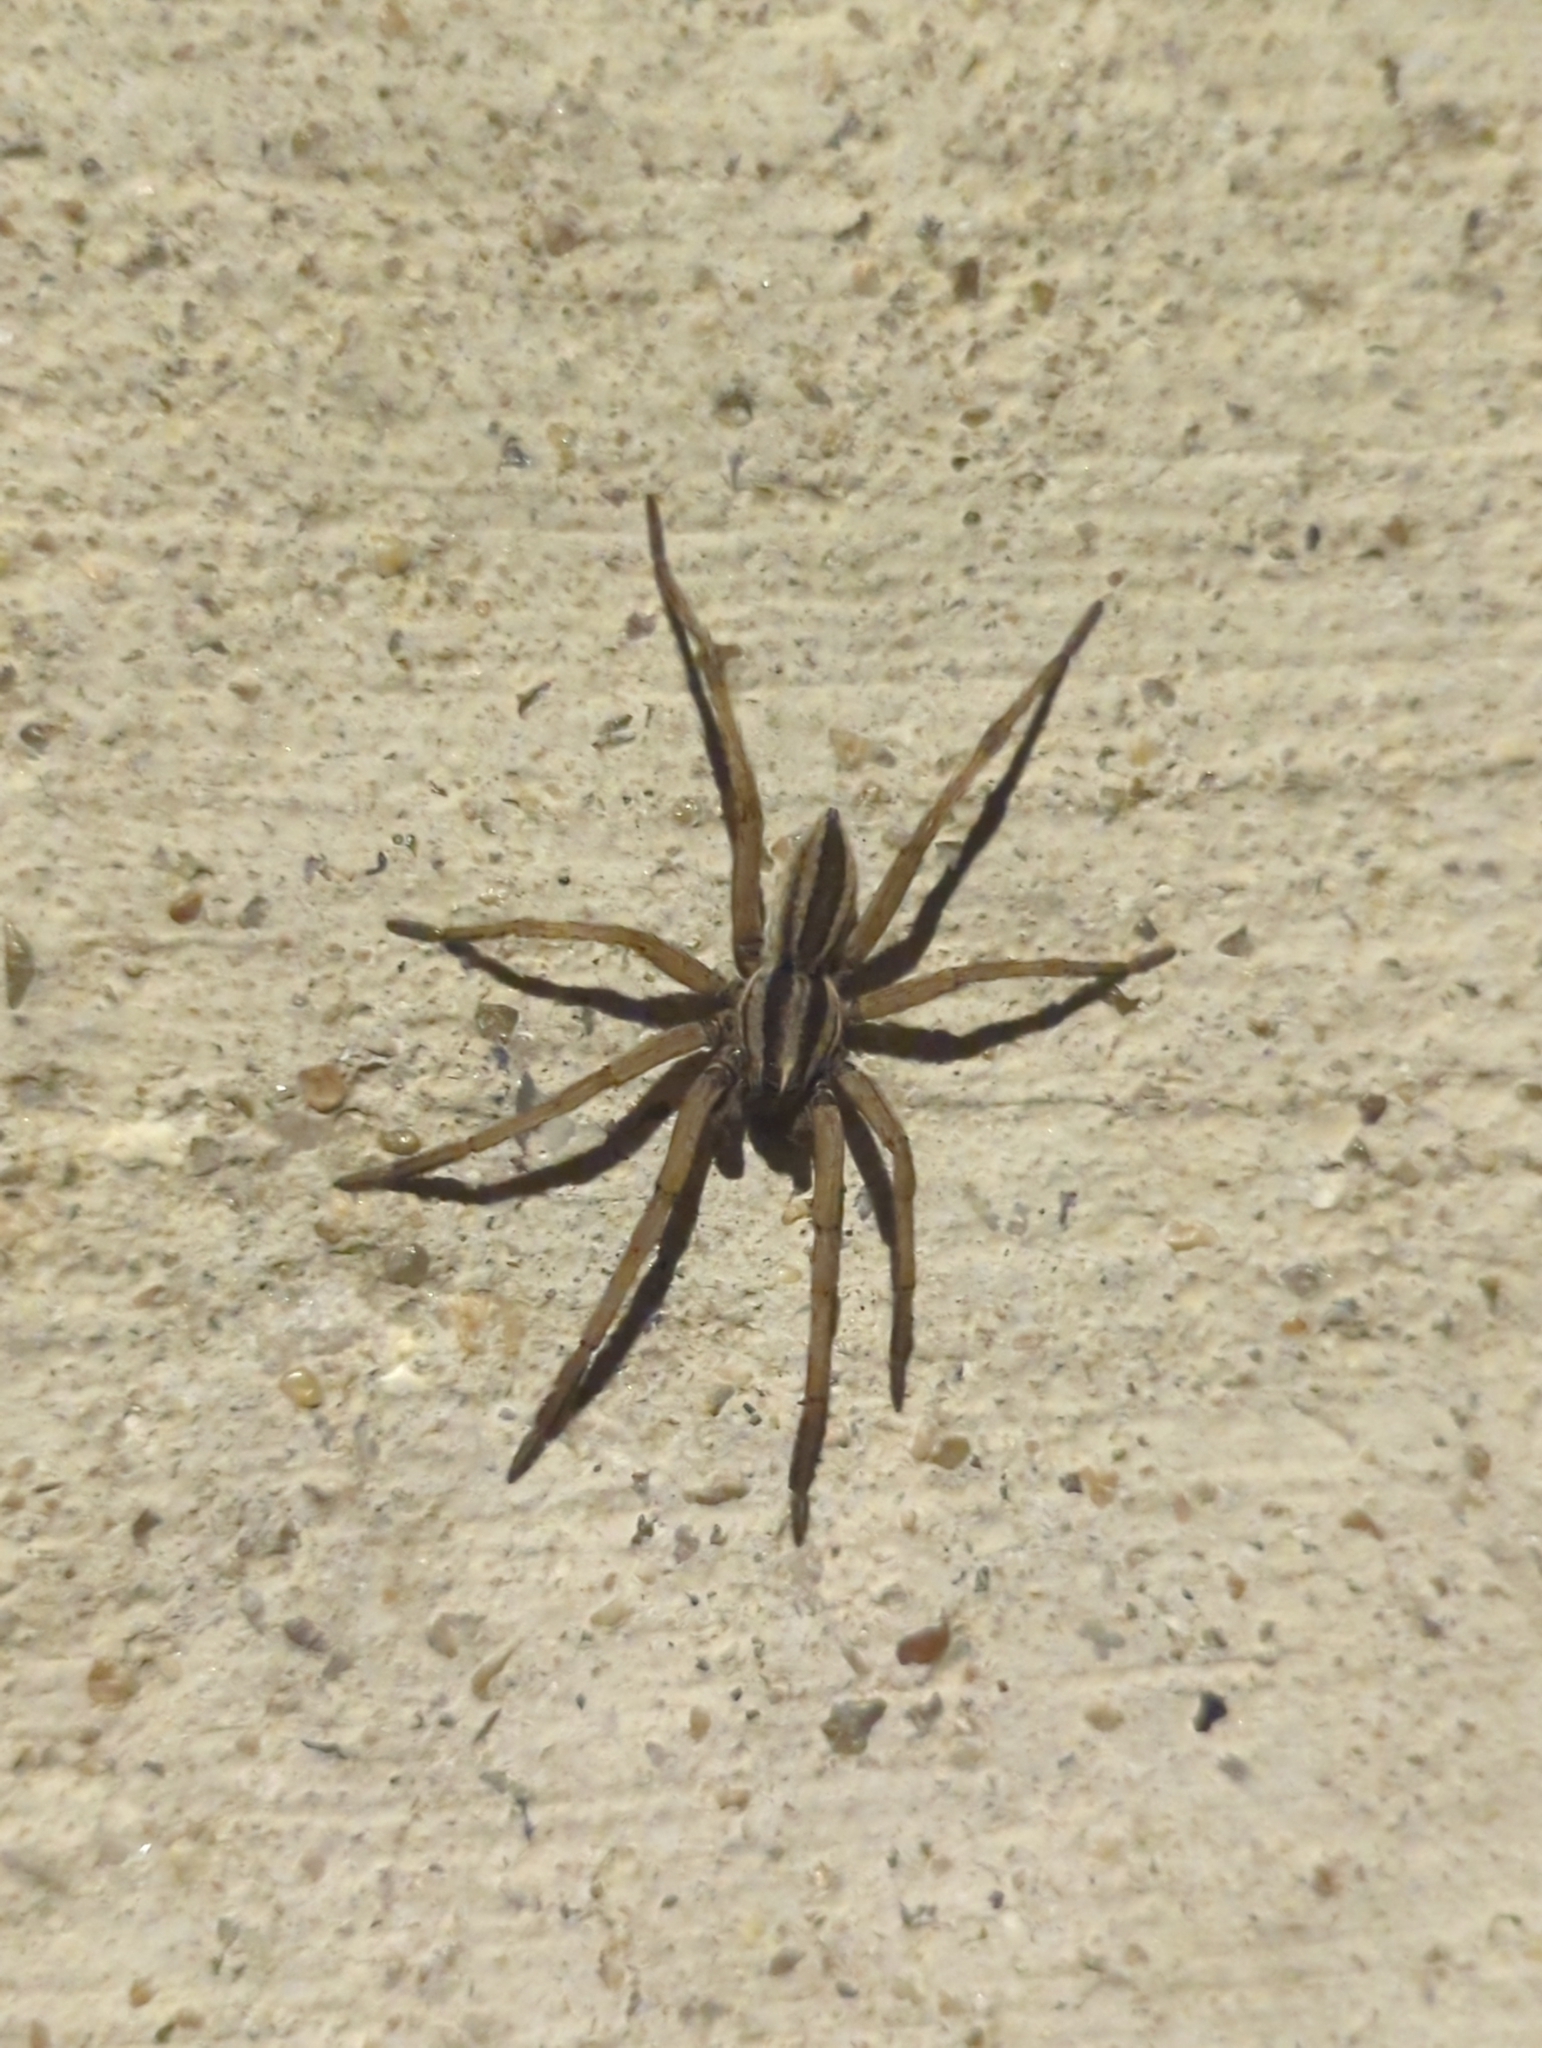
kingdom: Animalia
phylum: Arthropoda
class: Arachnida
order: Araneae
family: Lycosidae
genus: Rabidosa
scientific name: Rabidosa punctulata
